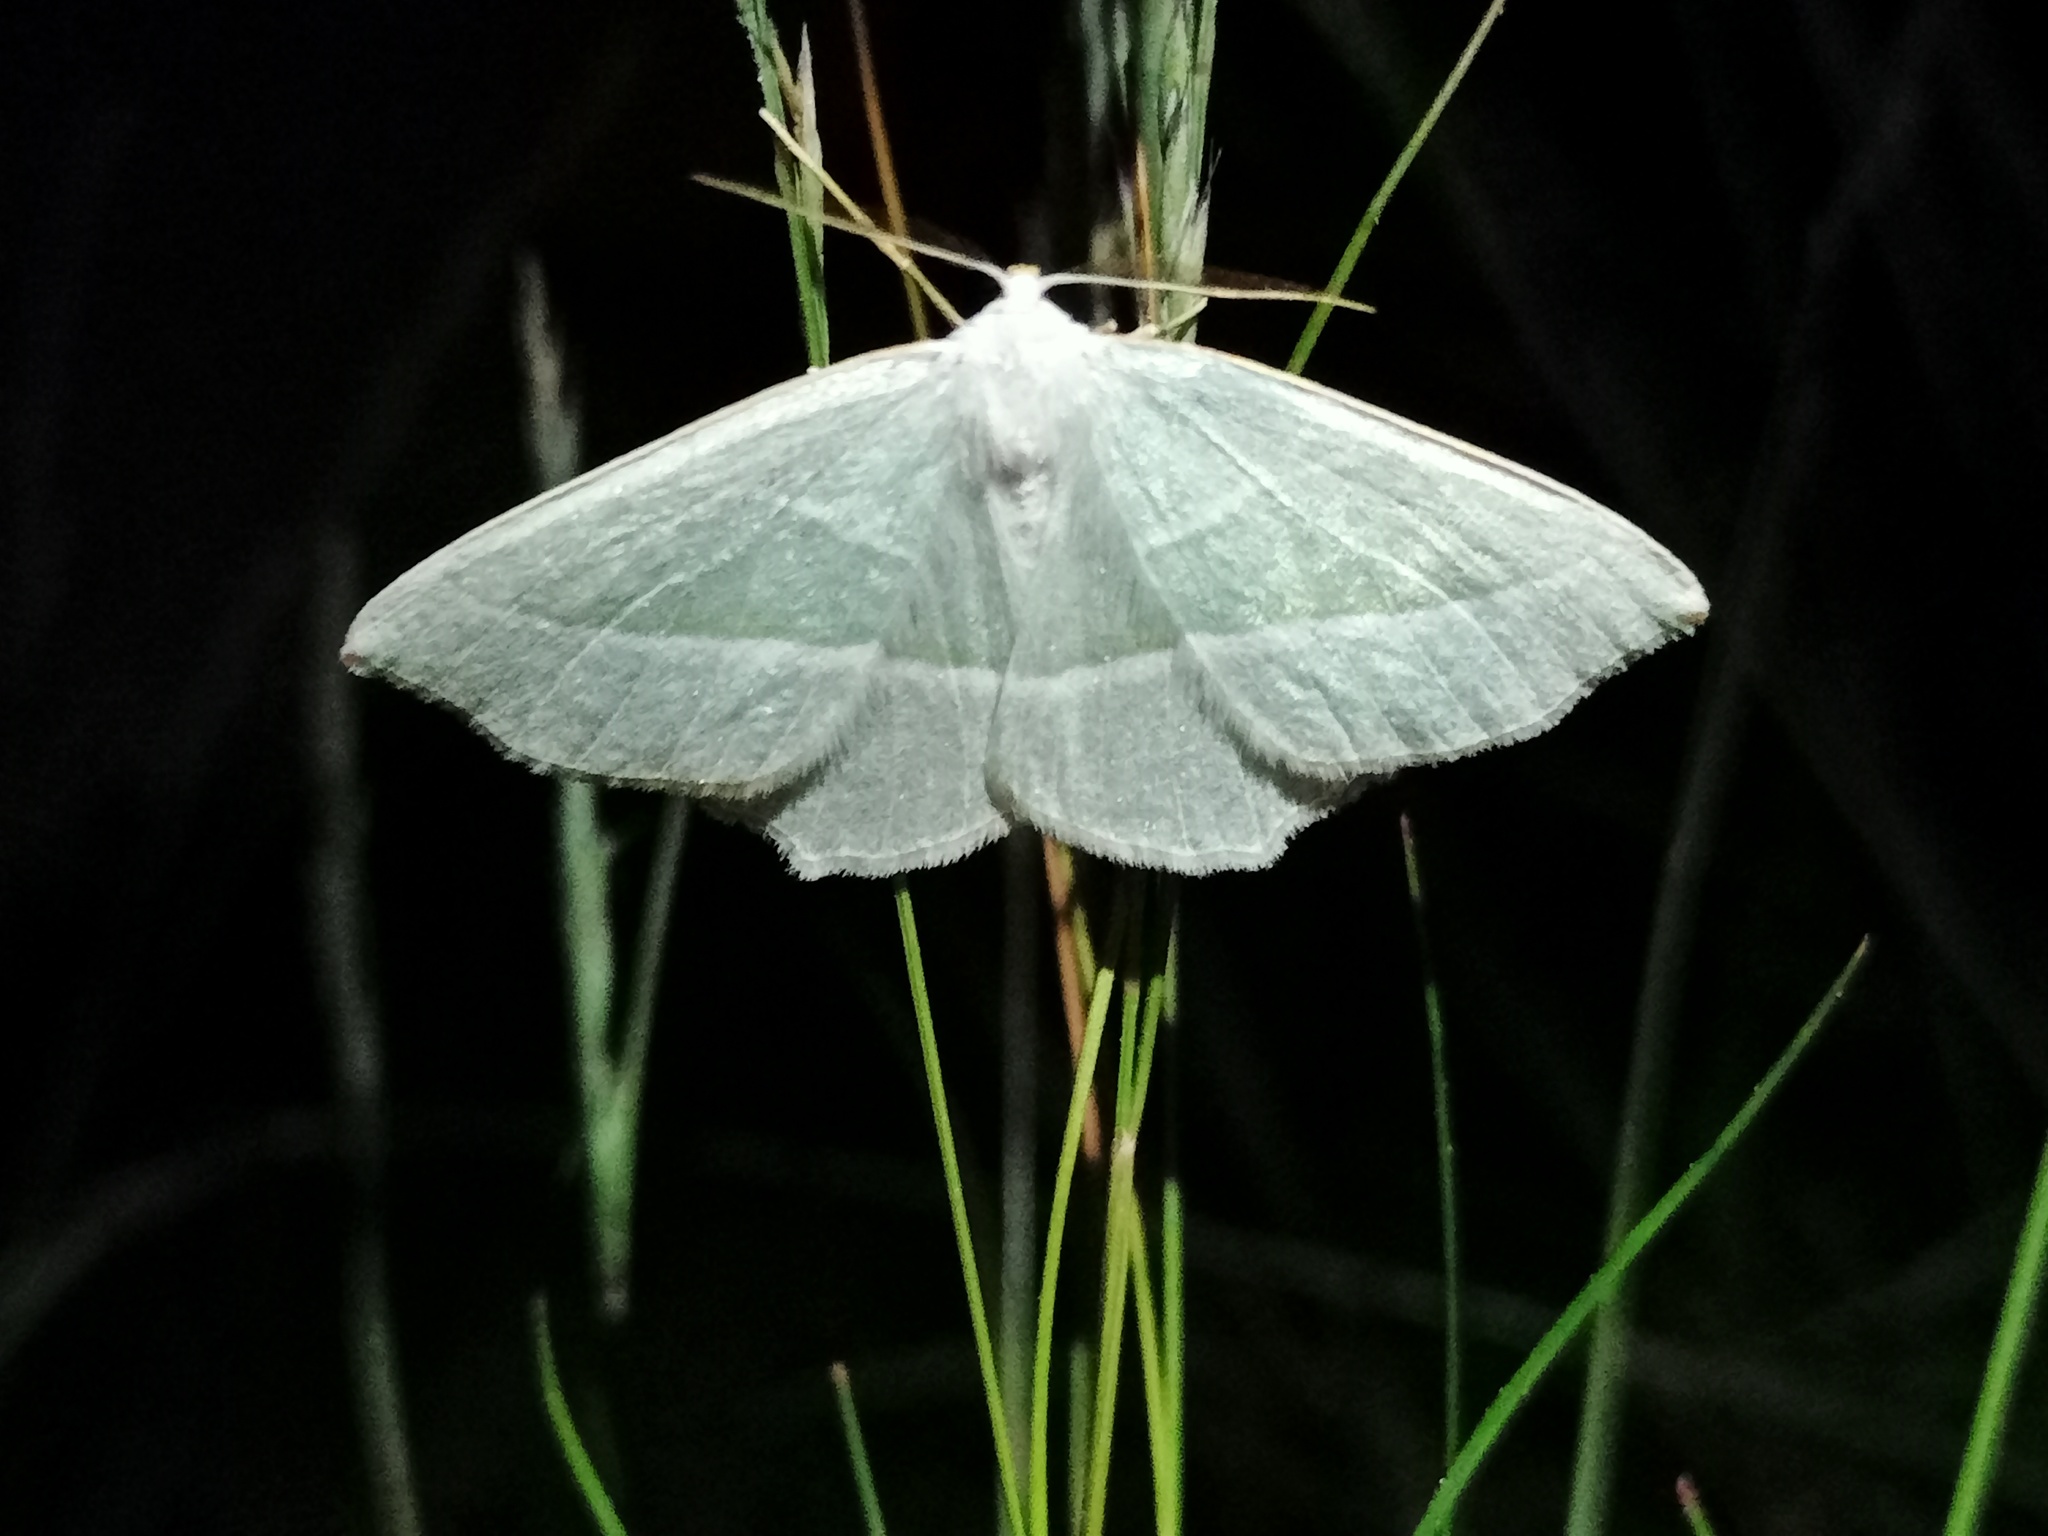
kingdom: Animalia
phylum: Arthropoda
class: Insecta
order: Lepidoptera
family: Geometridae
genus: Campaea
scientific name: Campaea margaritaria
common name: Light emerald
